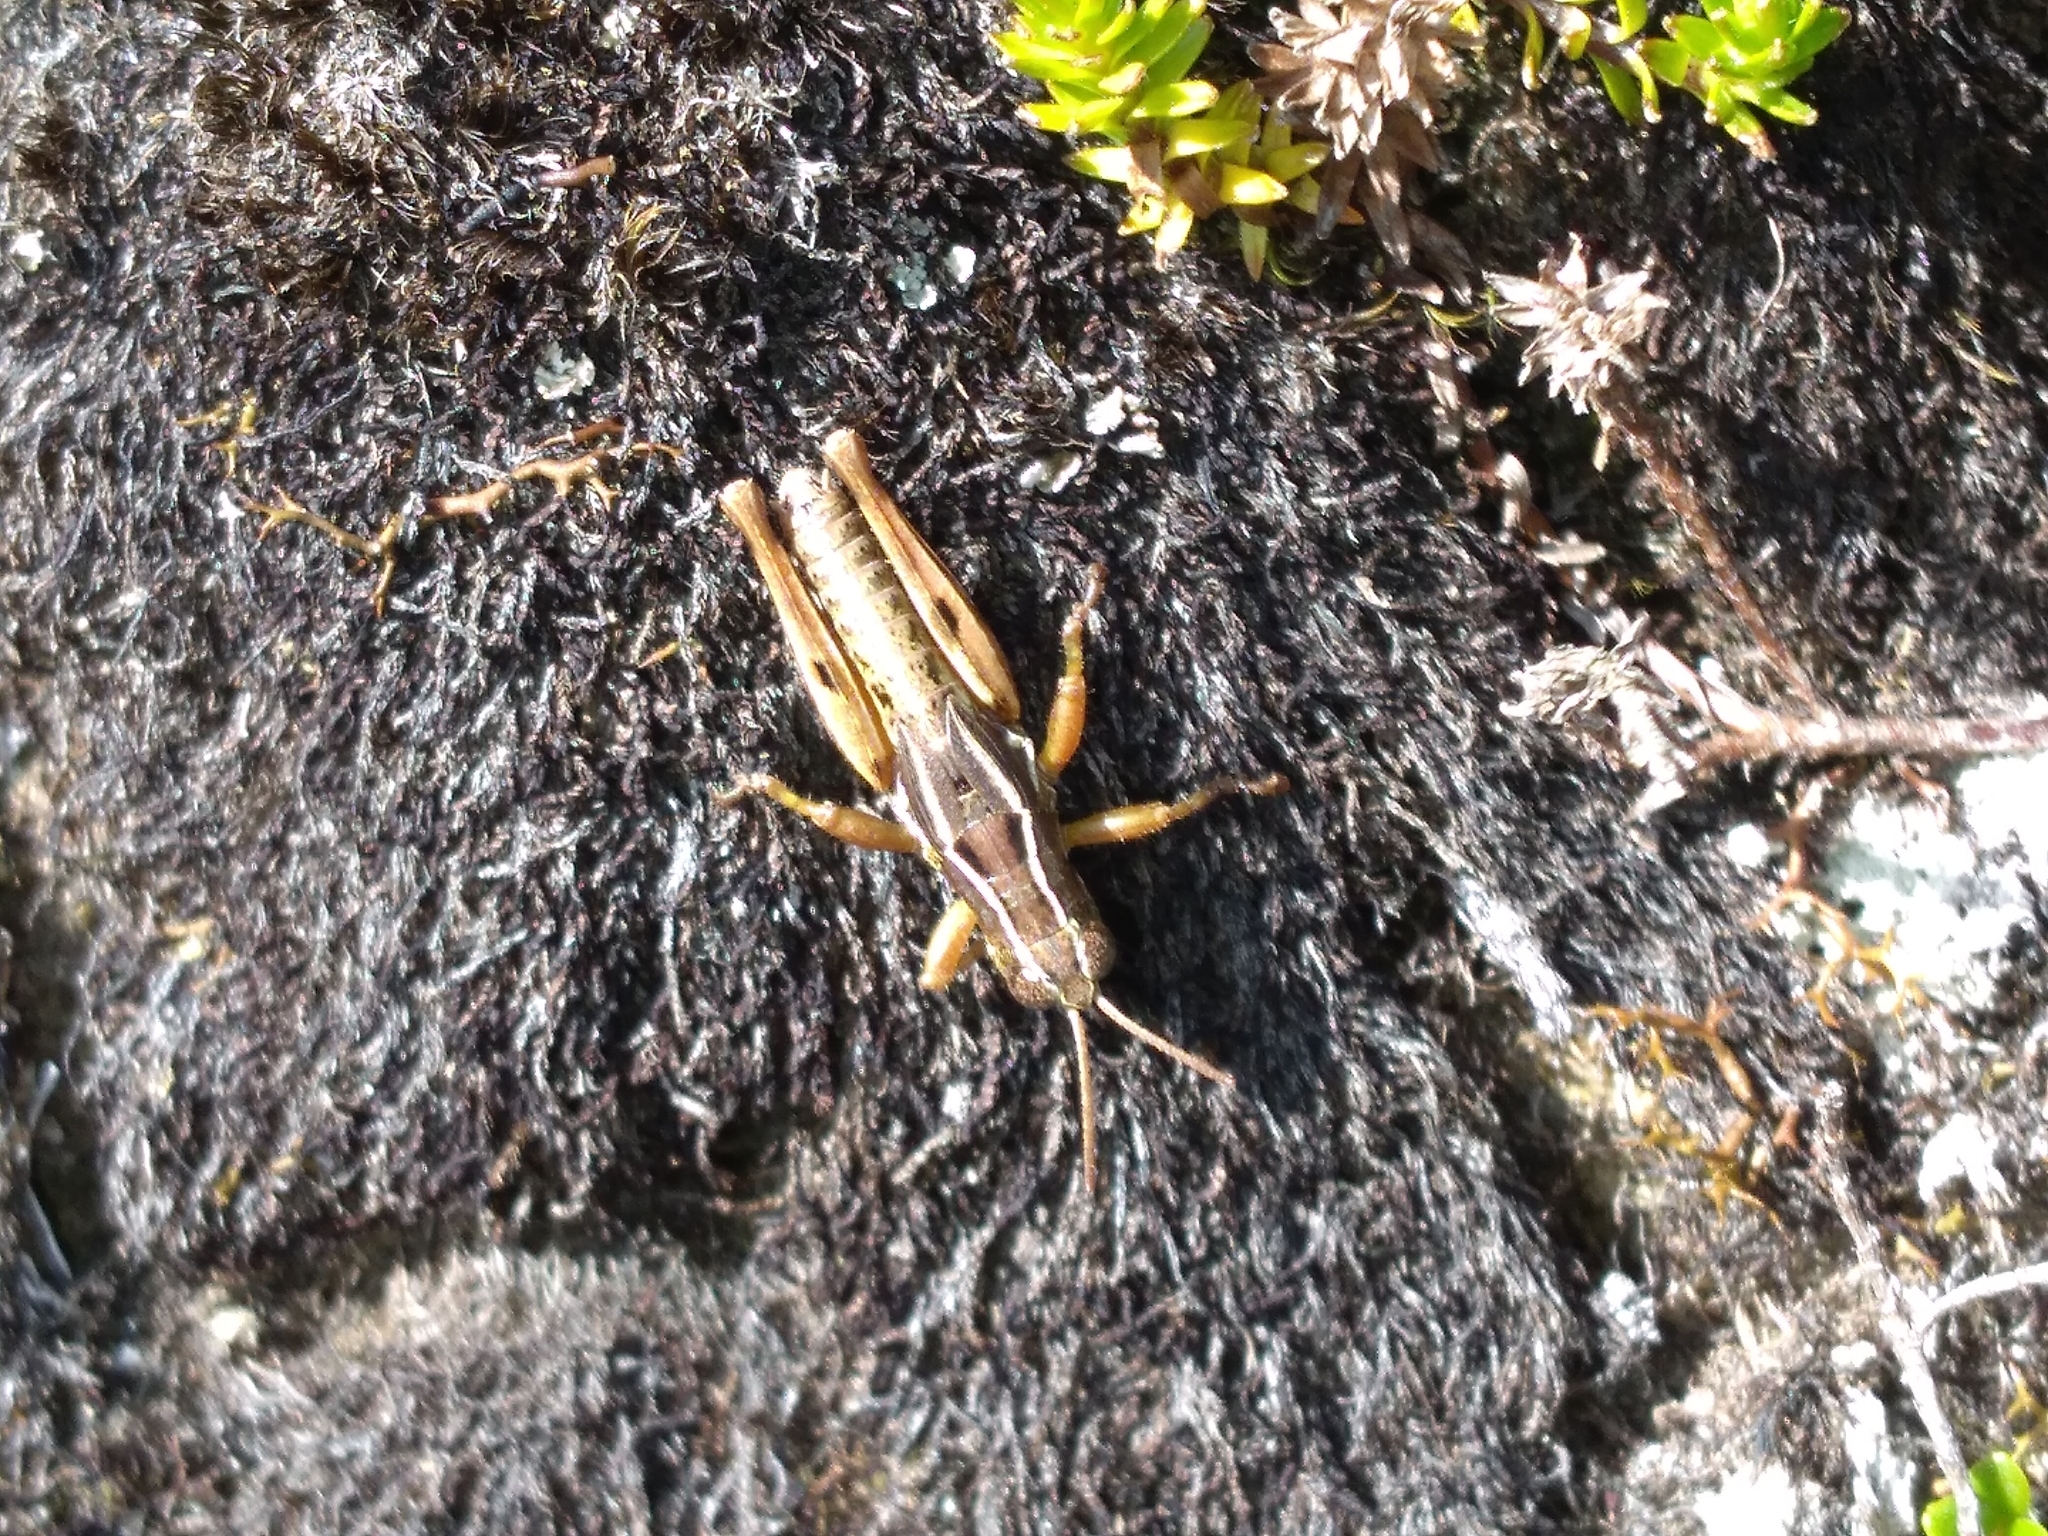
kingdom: Animalia
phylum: Arthropoda
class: Insecta
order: Orthoptera
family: Acrididae
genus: Phaulacridium
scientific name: Phaulacridium marginale
